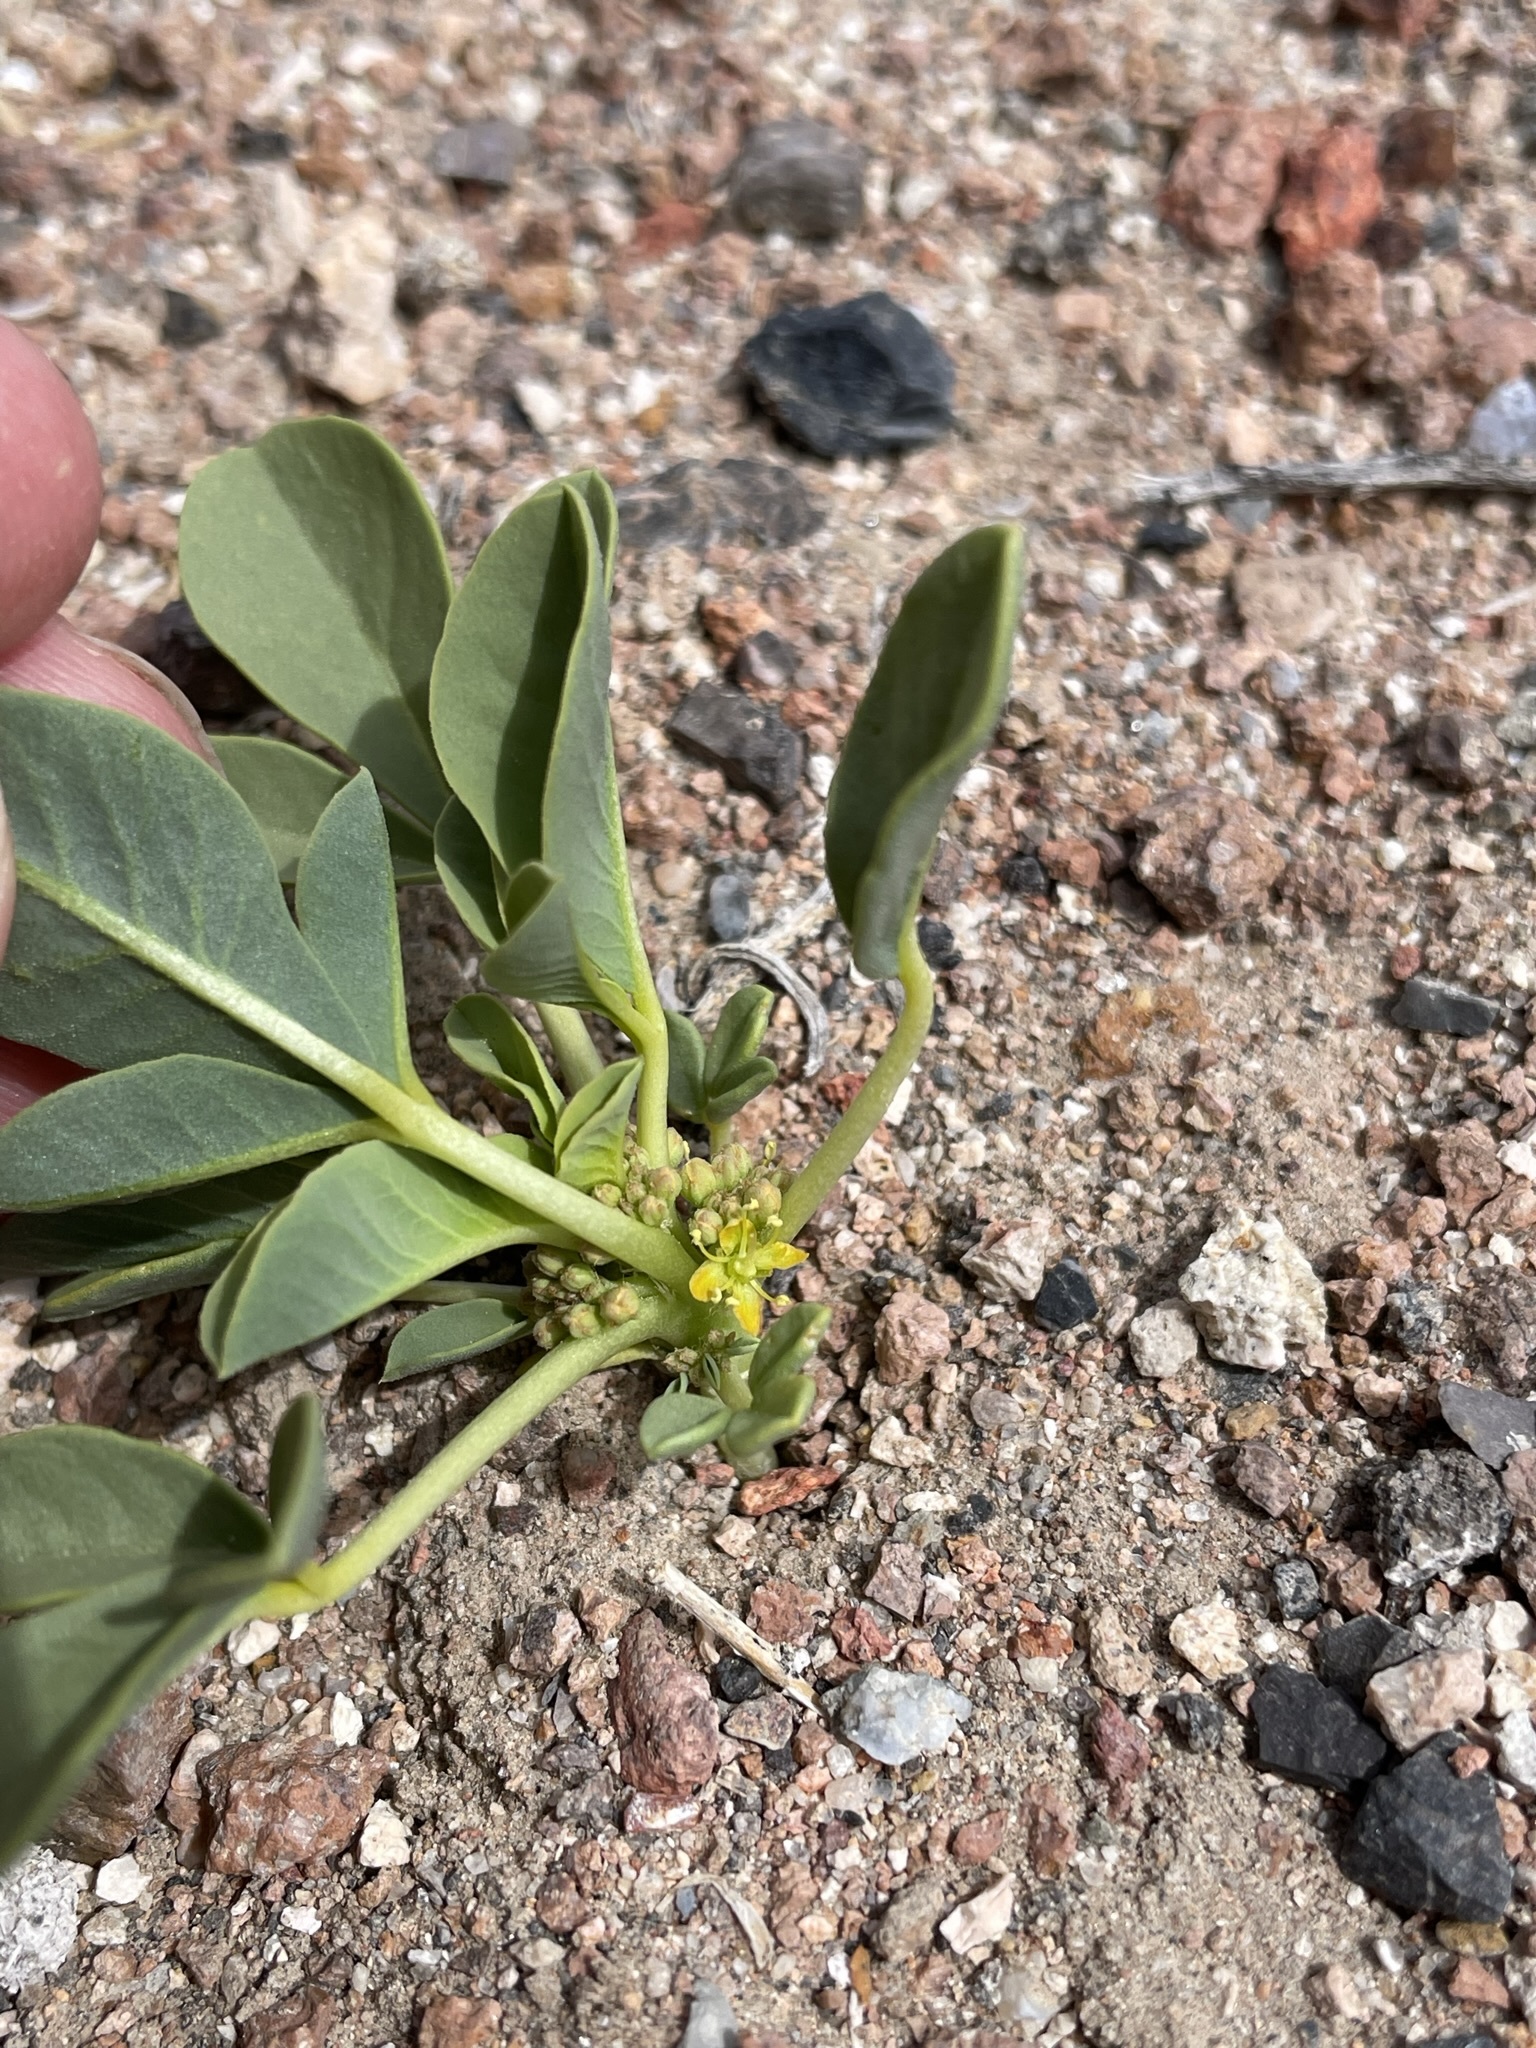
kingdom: Plantae
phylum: Tracheophyta
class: Magnoliopsida
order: Brassicales
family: Cleomaceae
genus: Cleomella
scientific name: Cleomella oxystyloides
